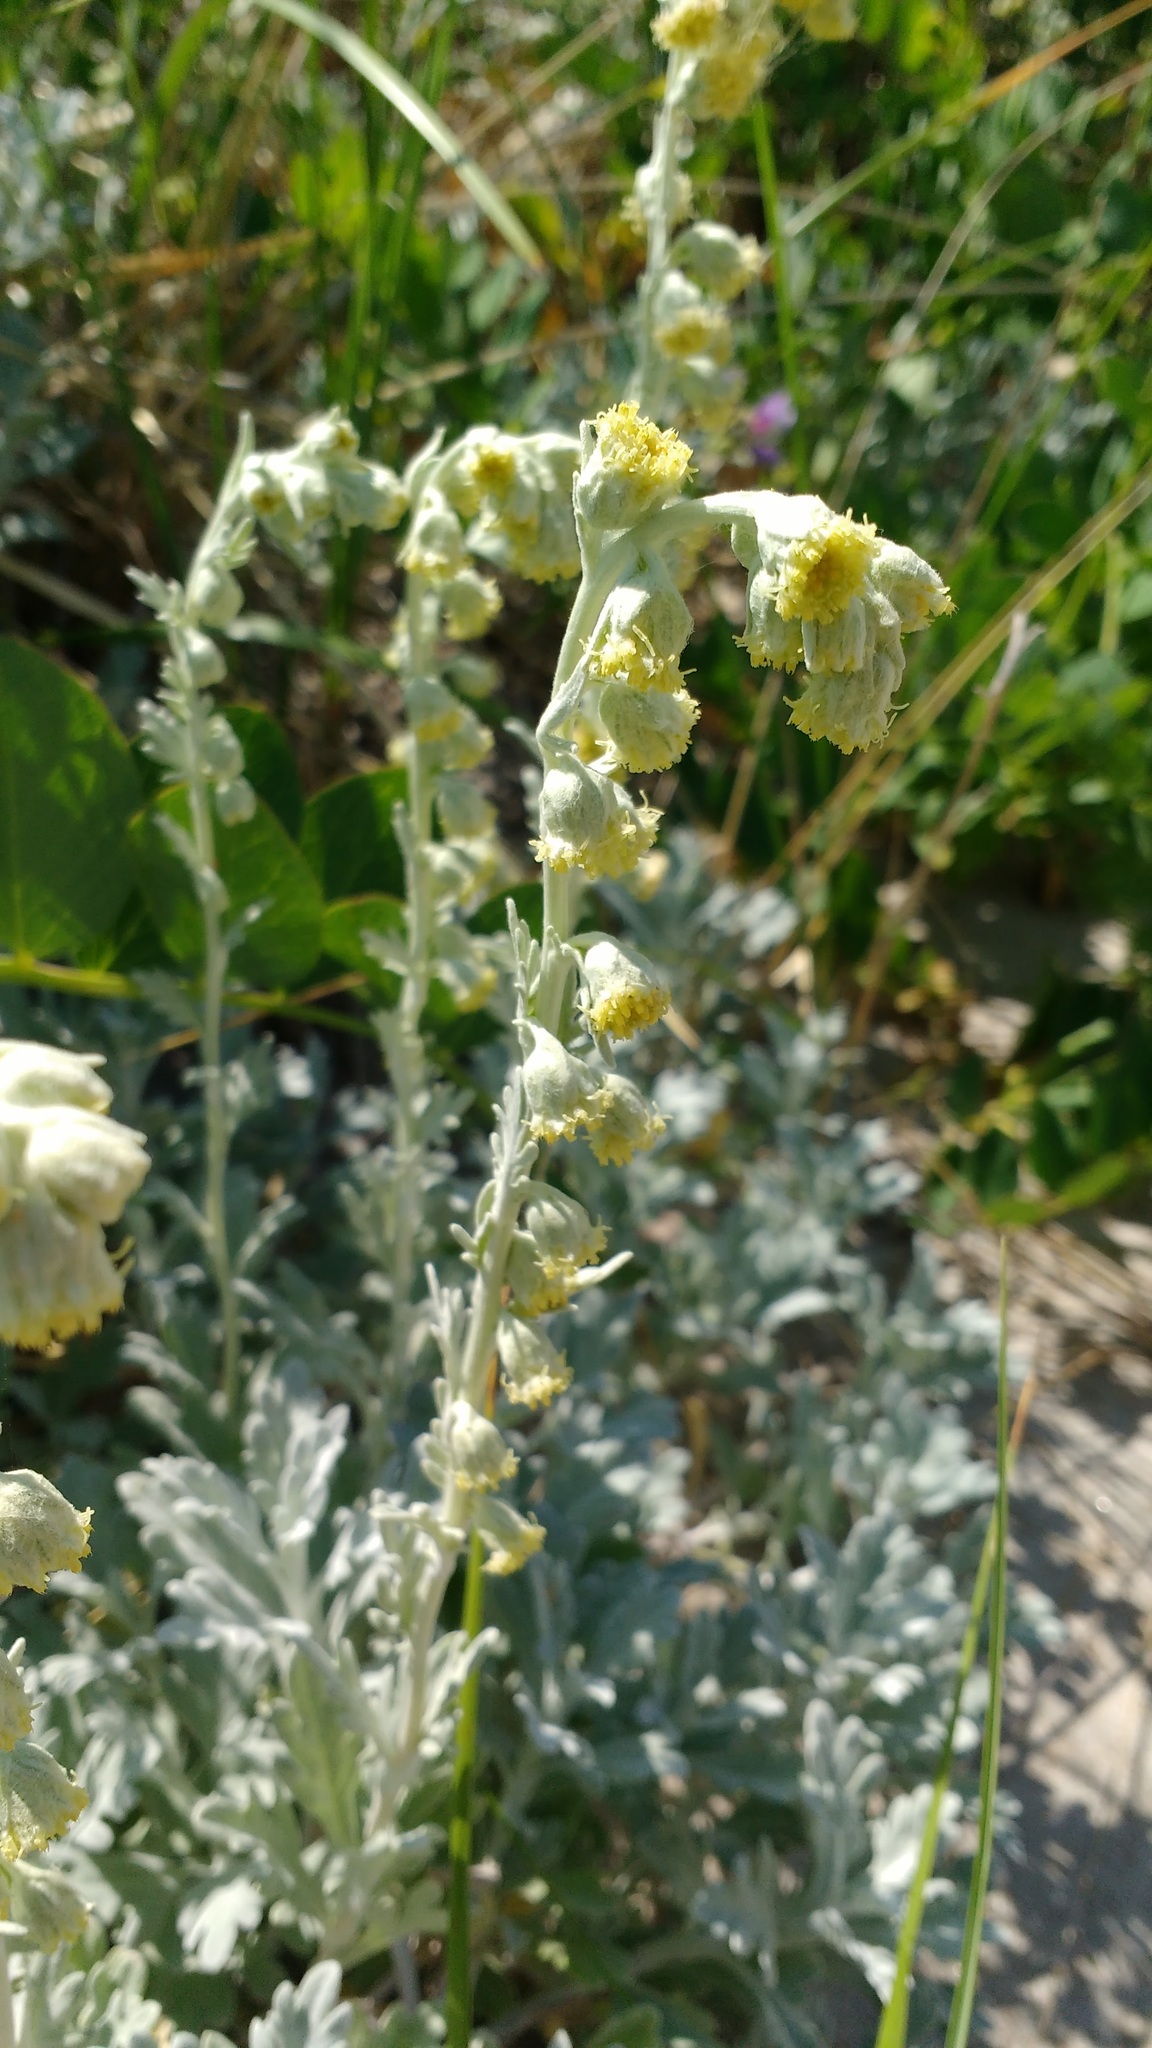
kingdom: Plantae
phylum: Tracheophyta
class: Magnoliopsida
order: Asterales
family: Asteraceae
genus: Artemisia
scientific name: Artemisia stelleriana
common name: Beach wormwood
